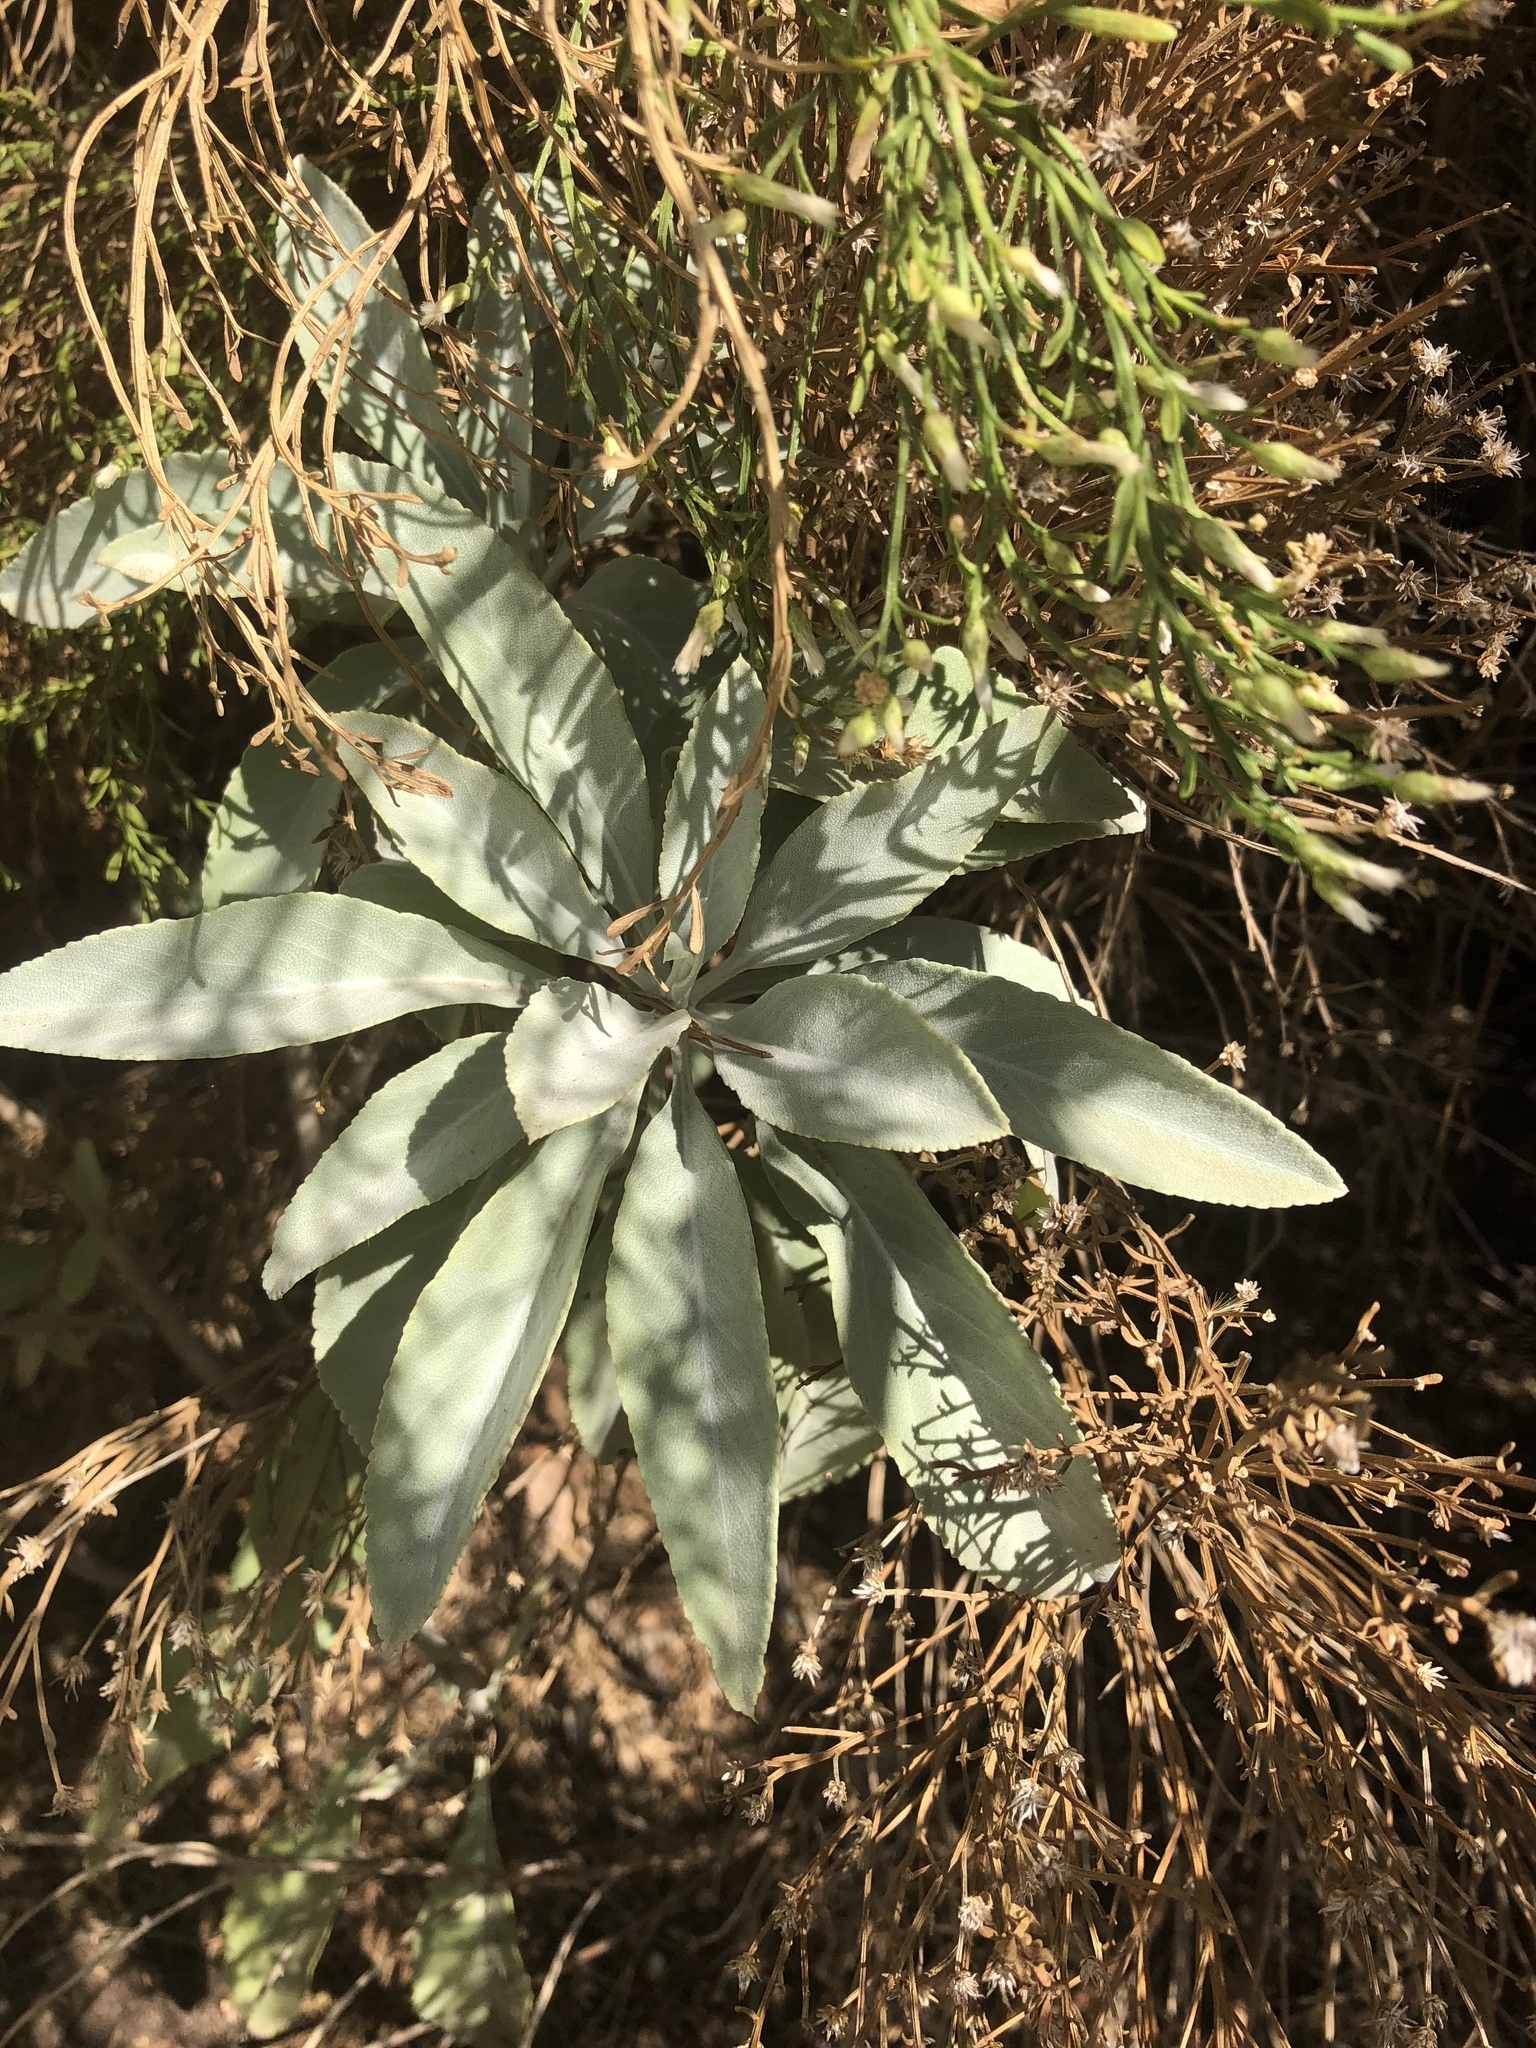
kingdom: Plantae
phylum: Tracheophyta
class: Magnoliopsida
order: Lamiales
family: Lamiaceae
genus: Salvia
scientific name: Salvia apiana
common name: White sage
